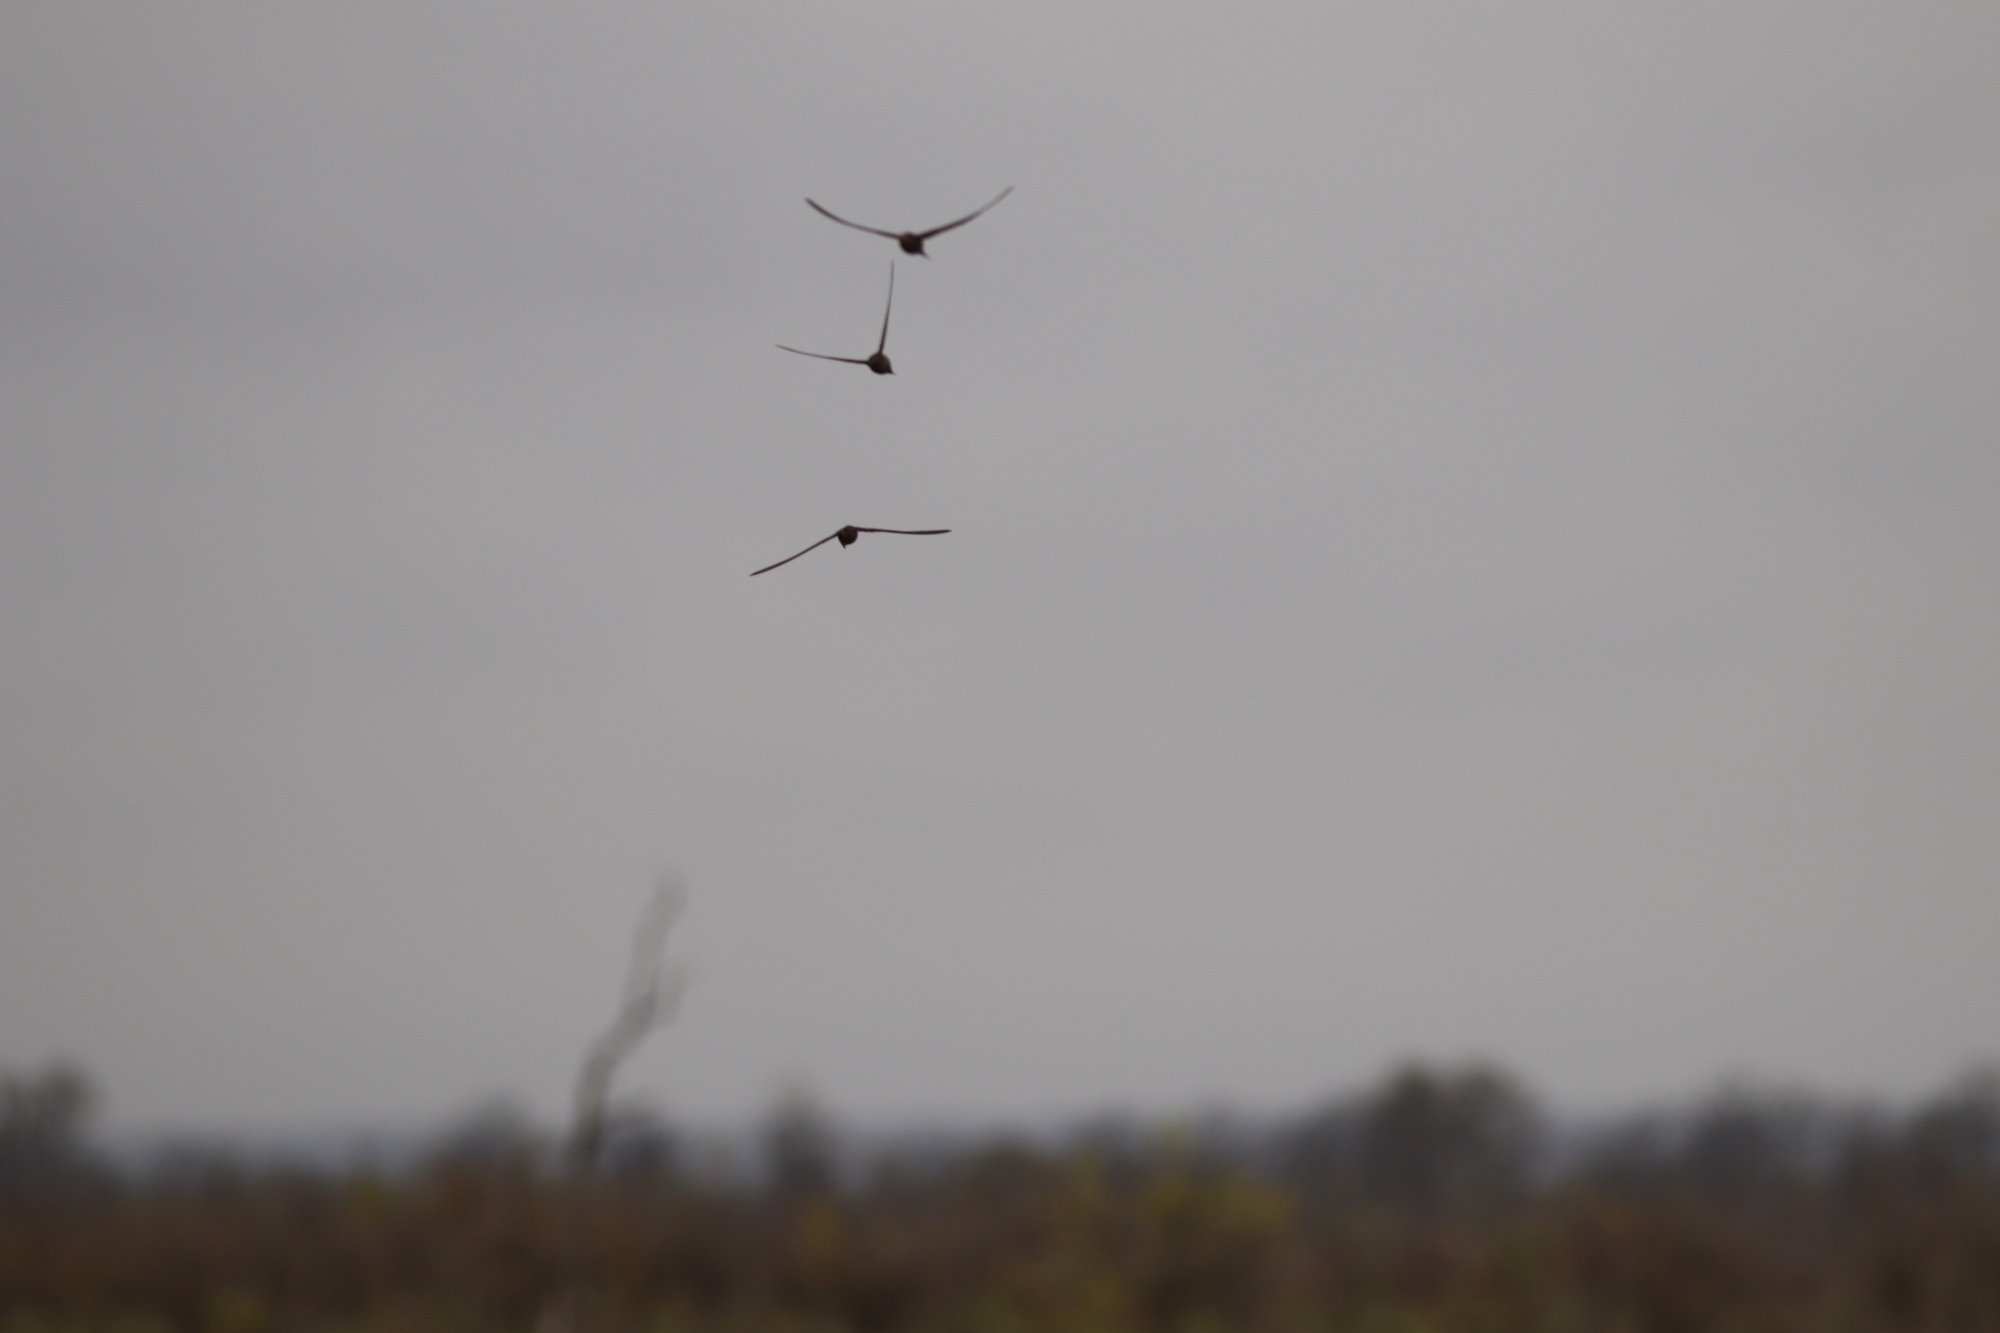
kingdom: Animalia
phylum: Chordata
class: Aves
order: Apodiformes
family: Apodidae
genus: Cypsiurus
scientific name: Cypsiurus parvus
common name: African palm swift
